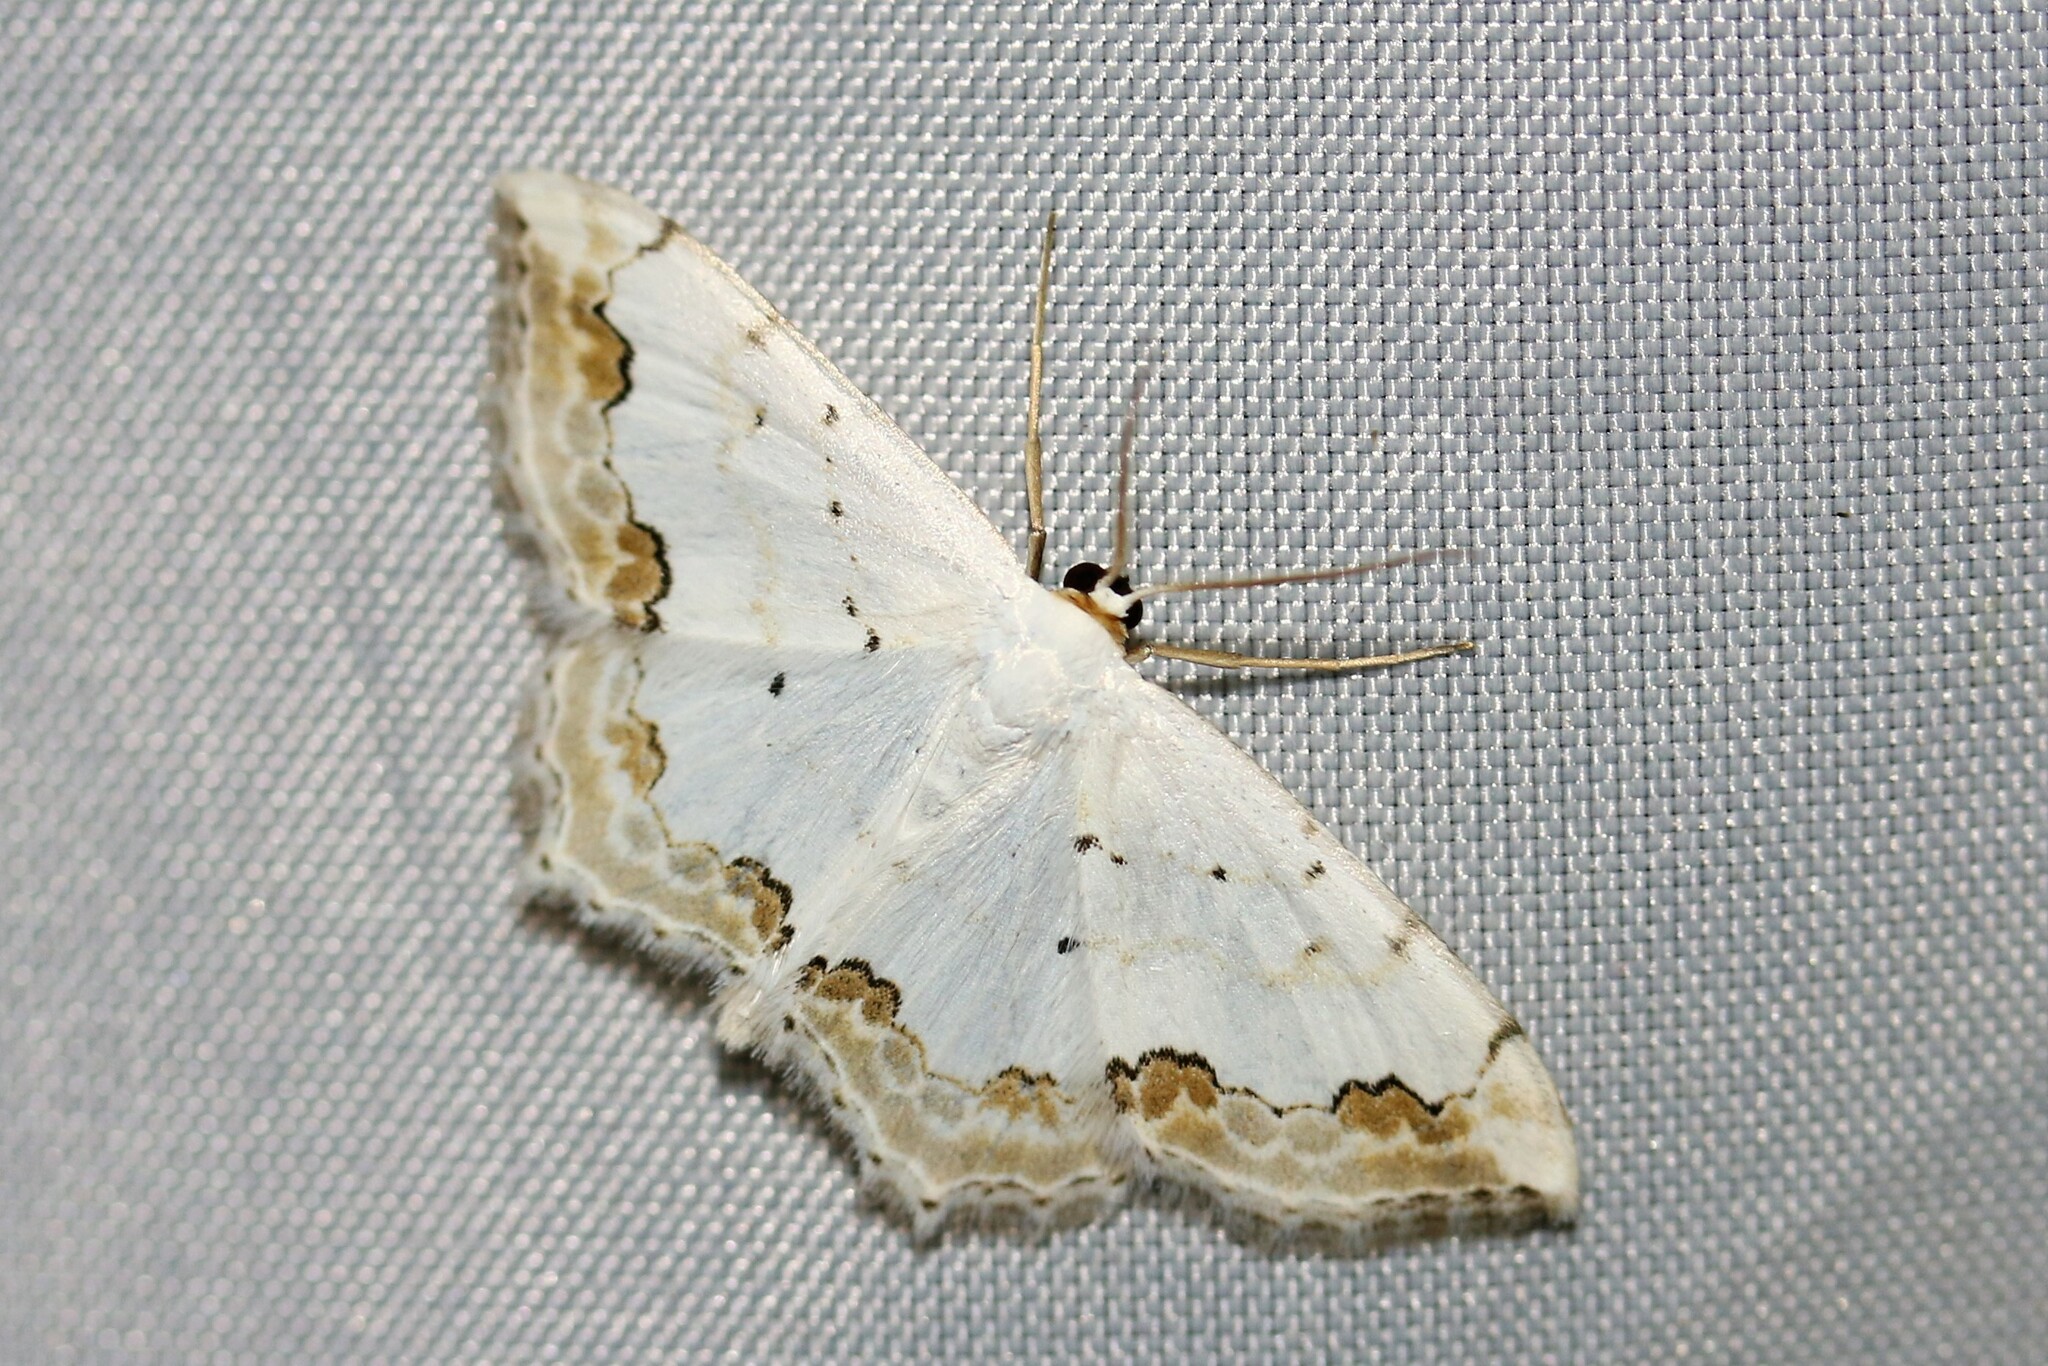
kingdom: Animalia
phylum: Arthropoda
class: Insecta
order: Lepidoptera
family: Geometridae
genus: Scopula
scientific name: Scopula ornata
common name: Lace border
